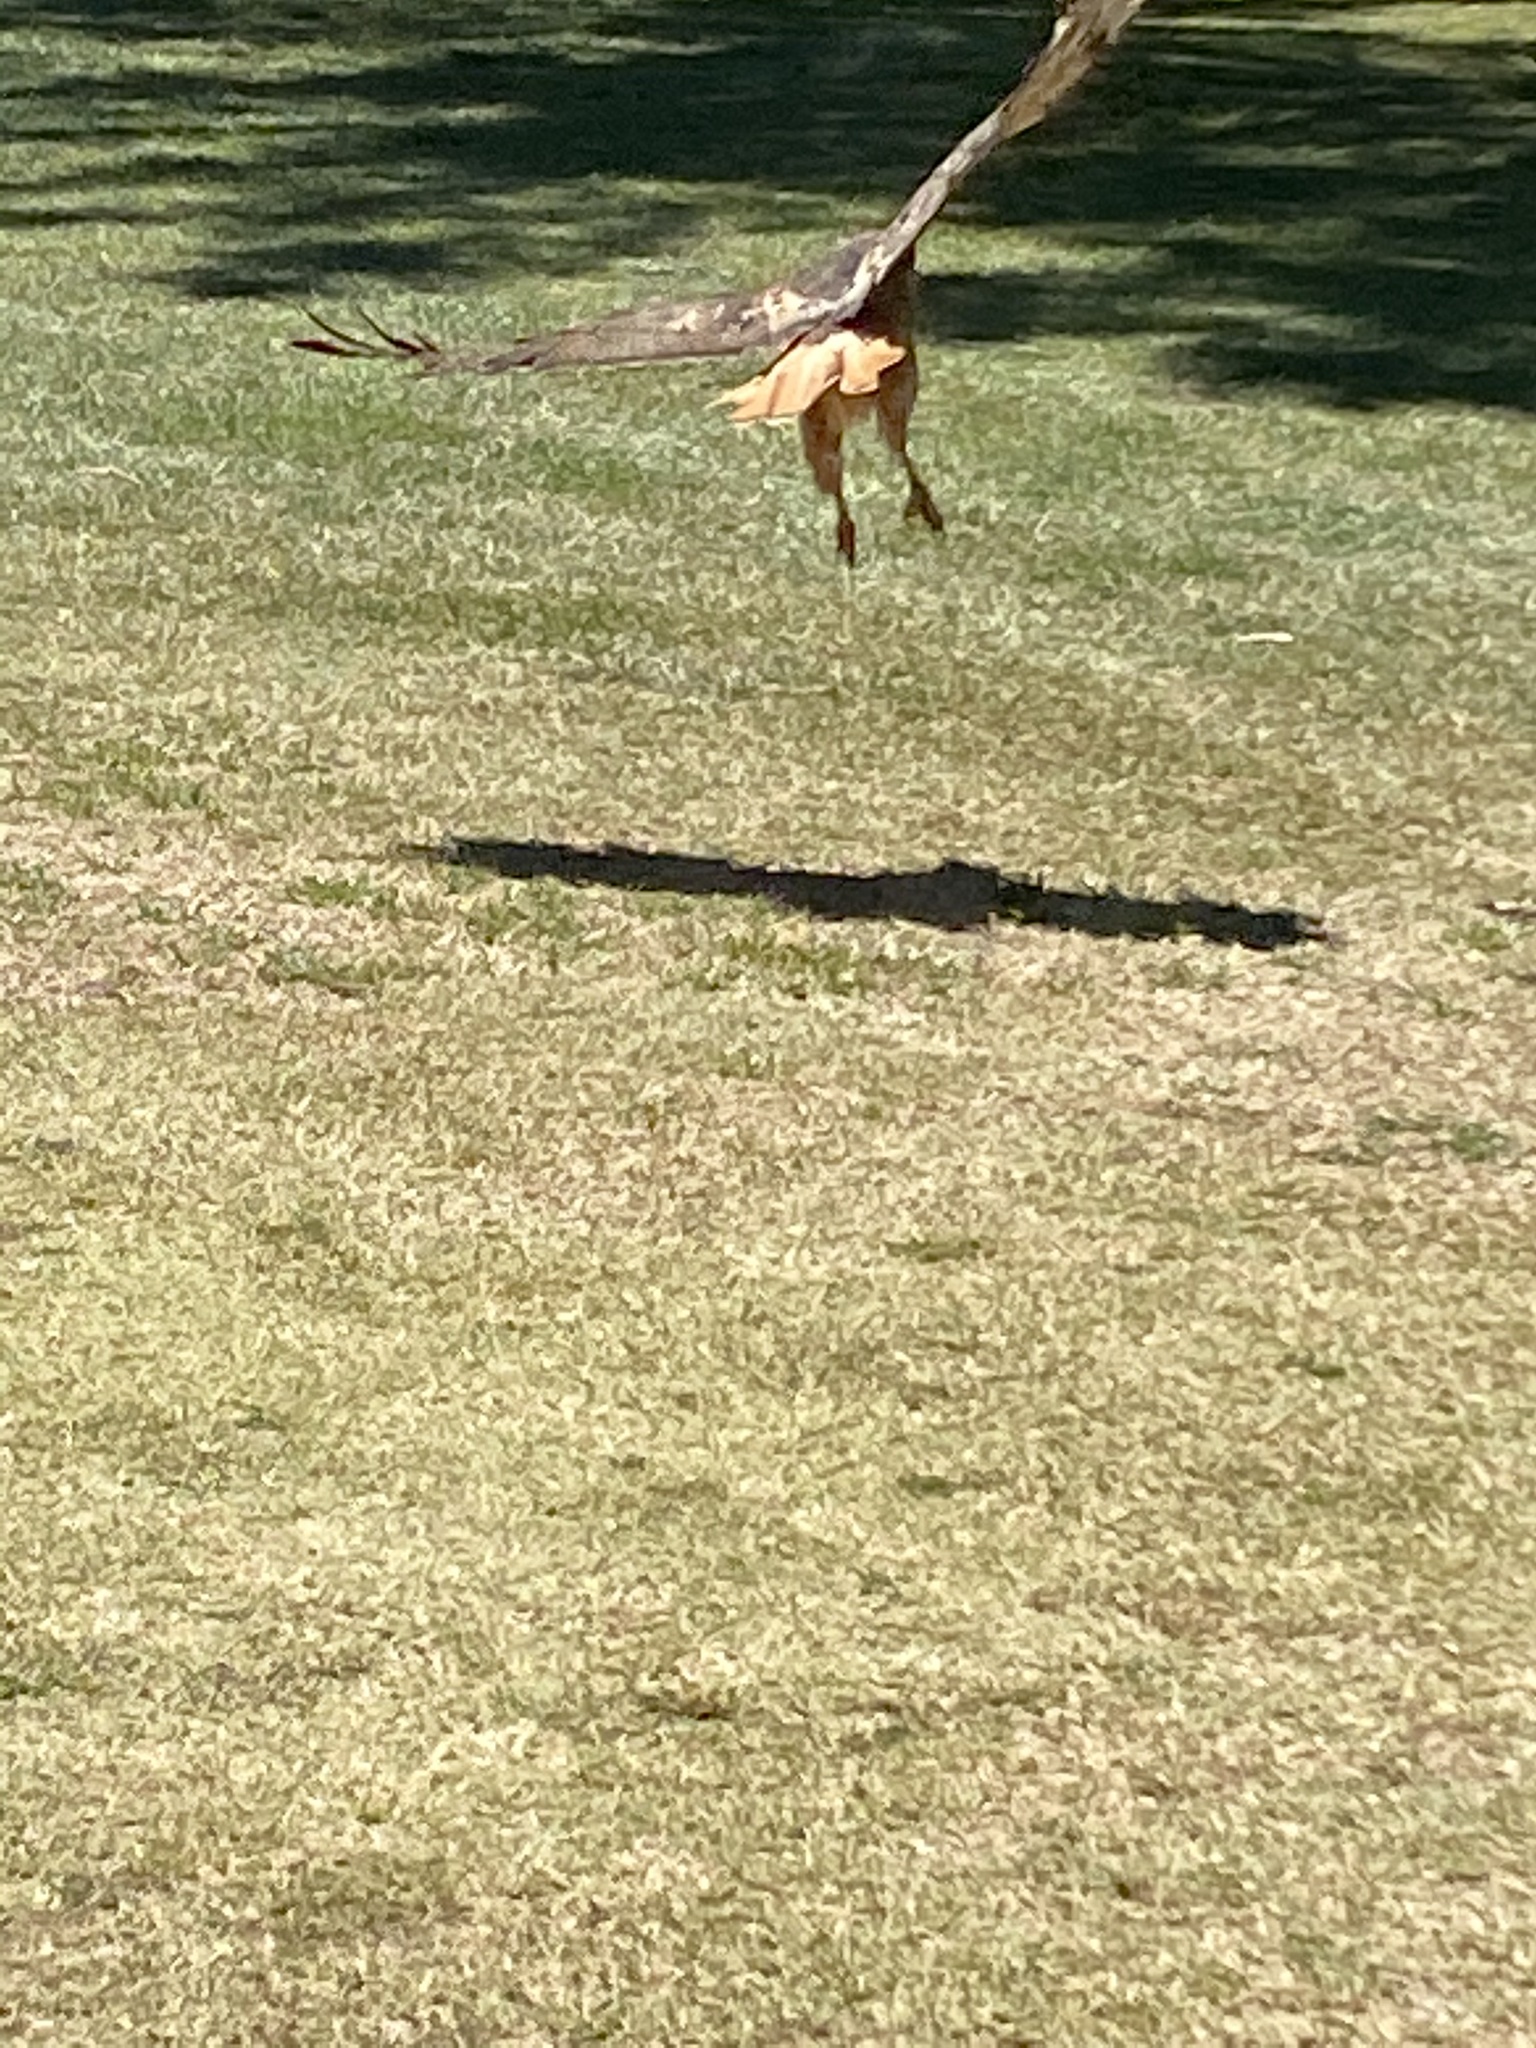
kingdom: Animalia
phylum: Chordata
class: Aves
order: Accipitriformes
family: Accipitridae
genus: Buteo
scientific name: Buteo jamaicensis
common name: Red-tailed hawk
